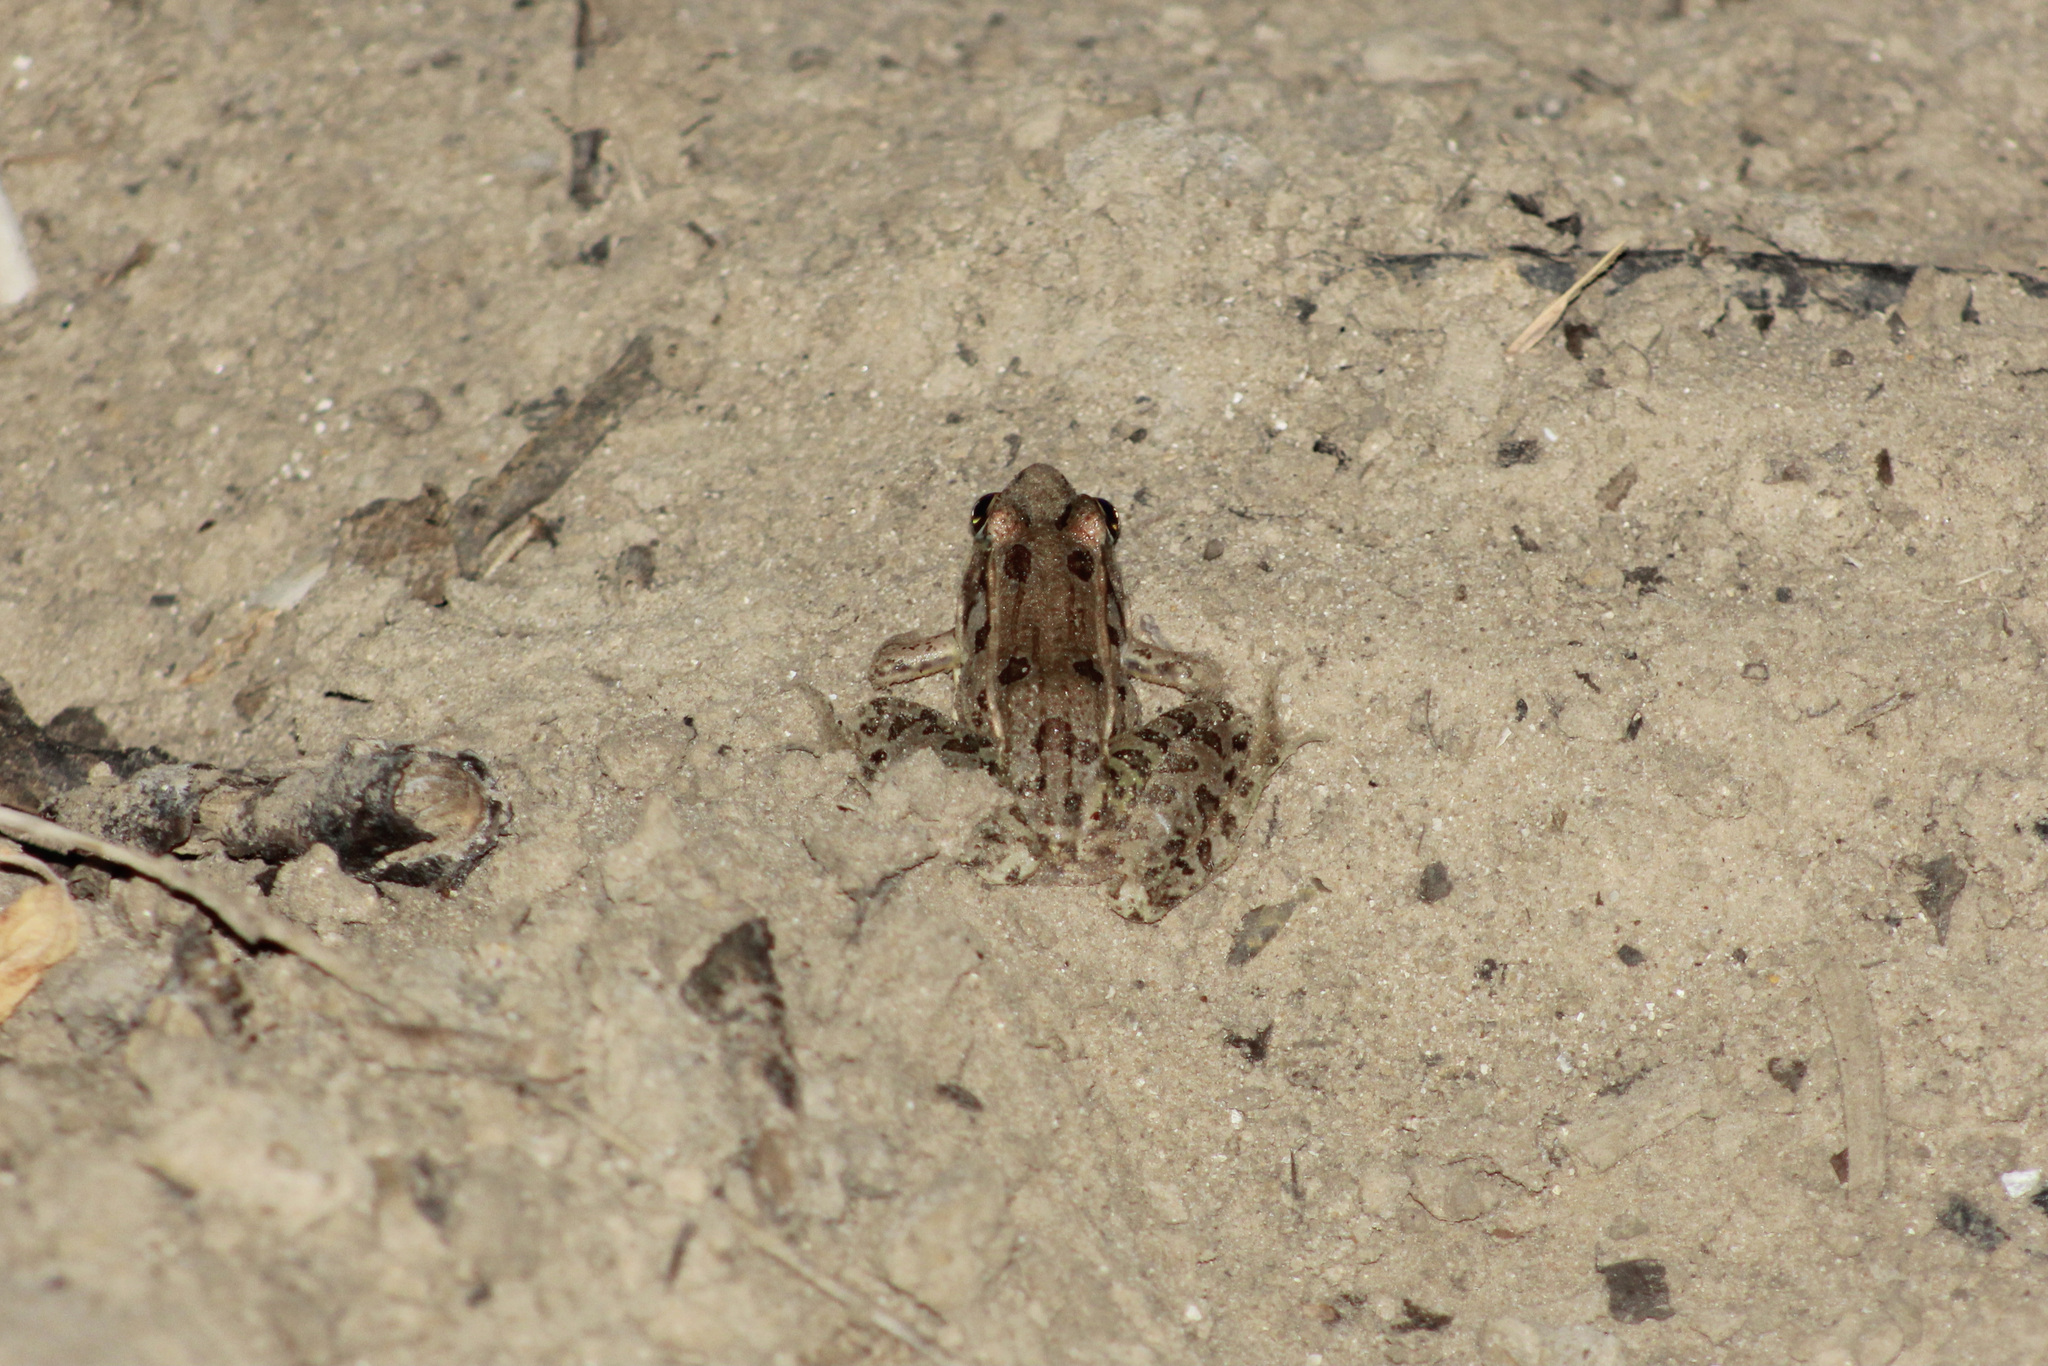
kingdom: Animalia
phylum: Chordata
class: Amphibia
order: Anura
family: Ranidae
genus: Lithobates
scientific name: Lithobates sphenocephalus
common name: Southern leopard frog
